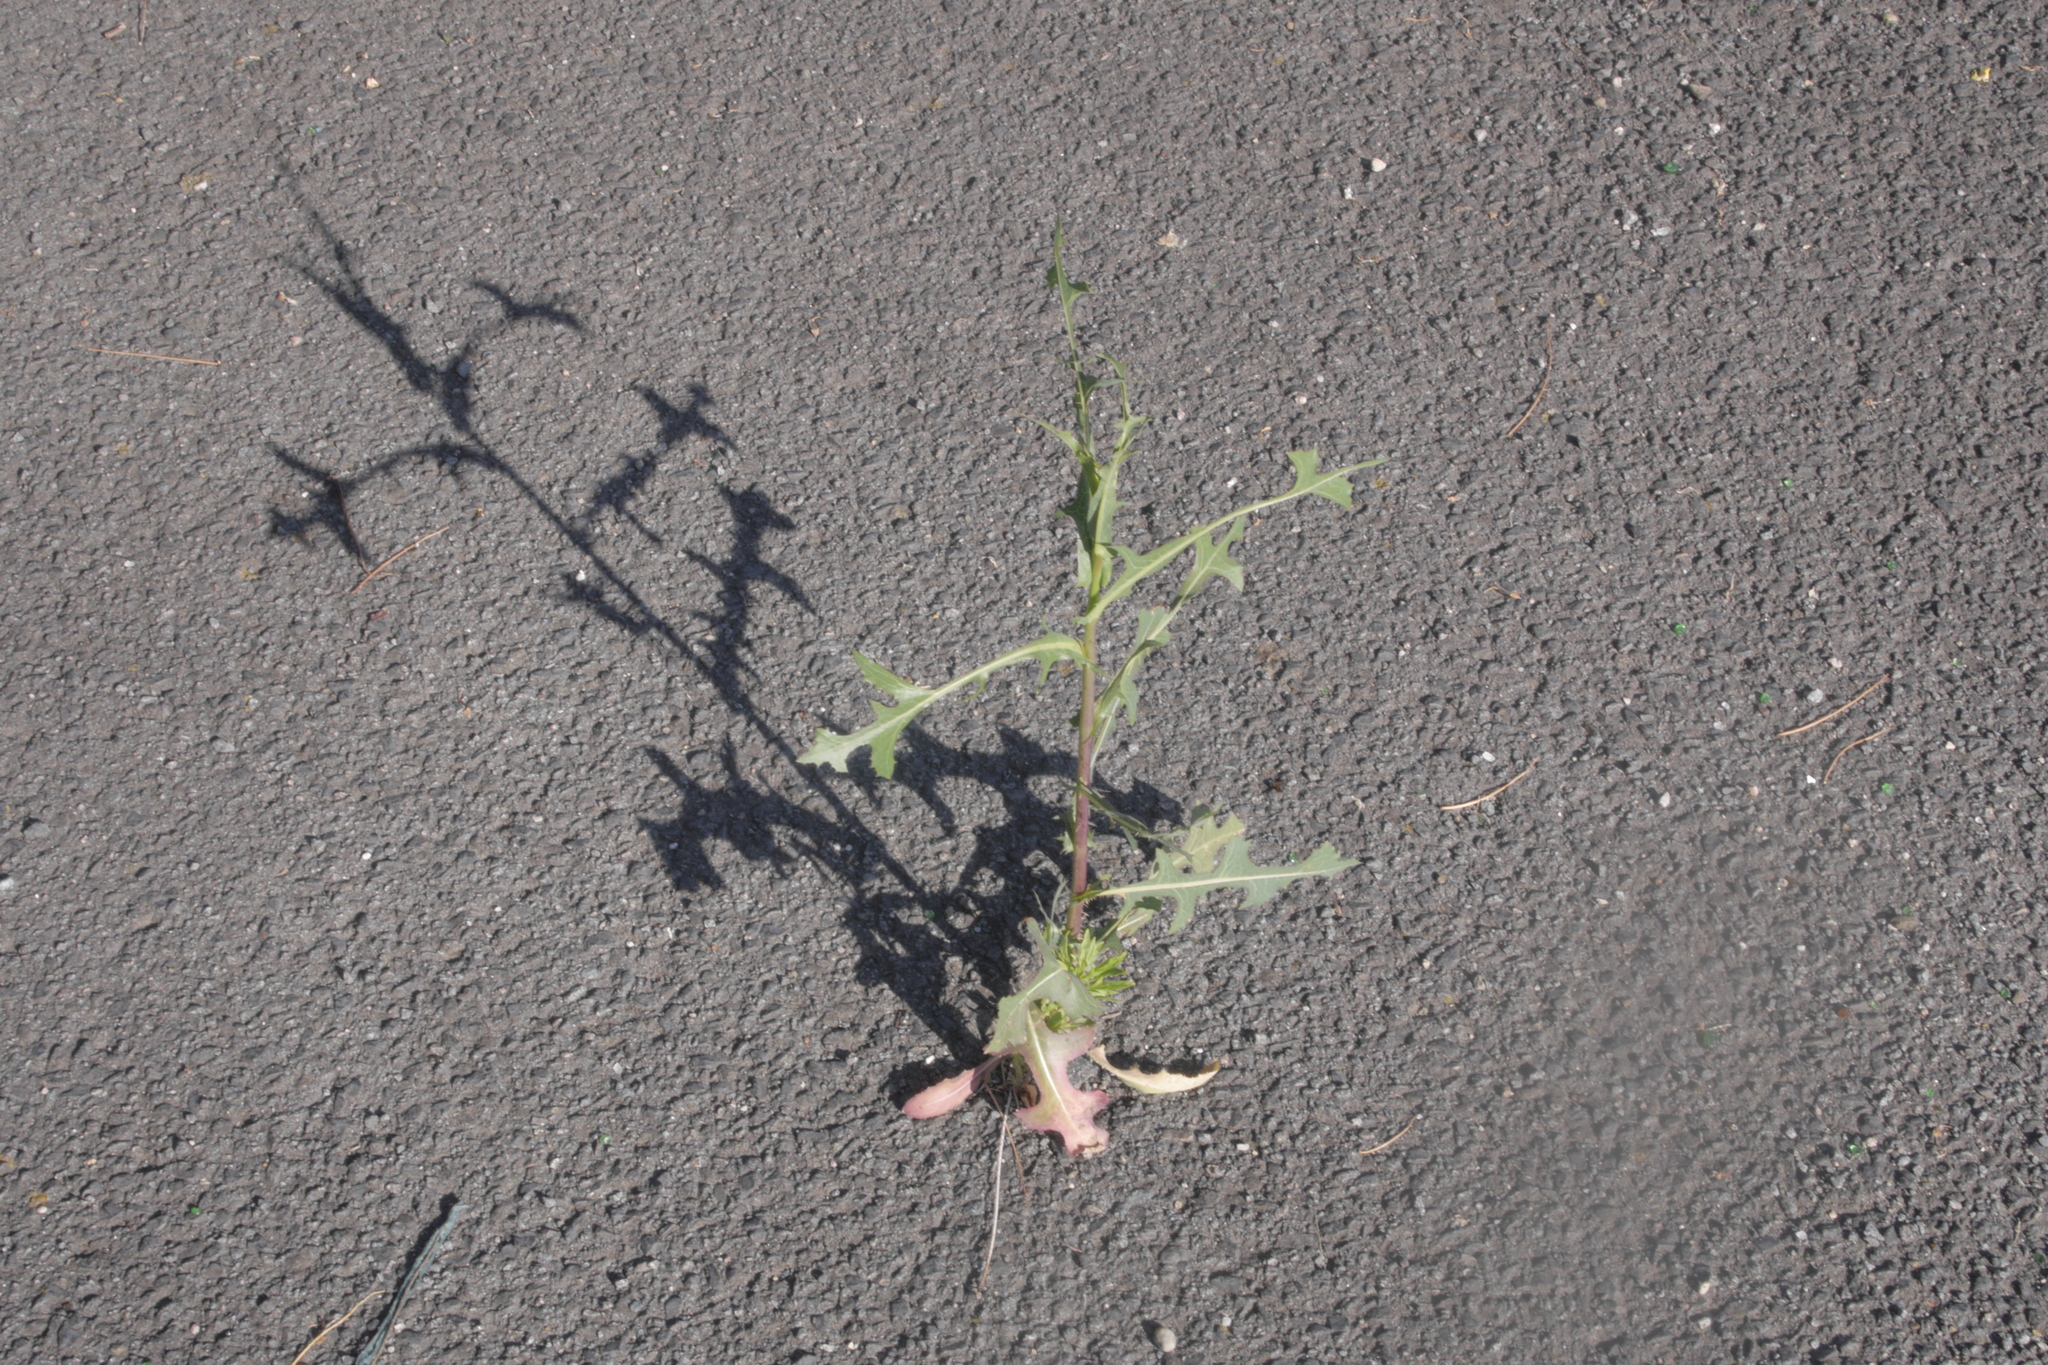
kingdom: Plantae
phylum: Tracheophyta
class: Magnoliopsida
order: Asterales
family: Asteraceae
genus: Lactuca
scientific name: Lactuca serriola
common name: Prickly lettuce
